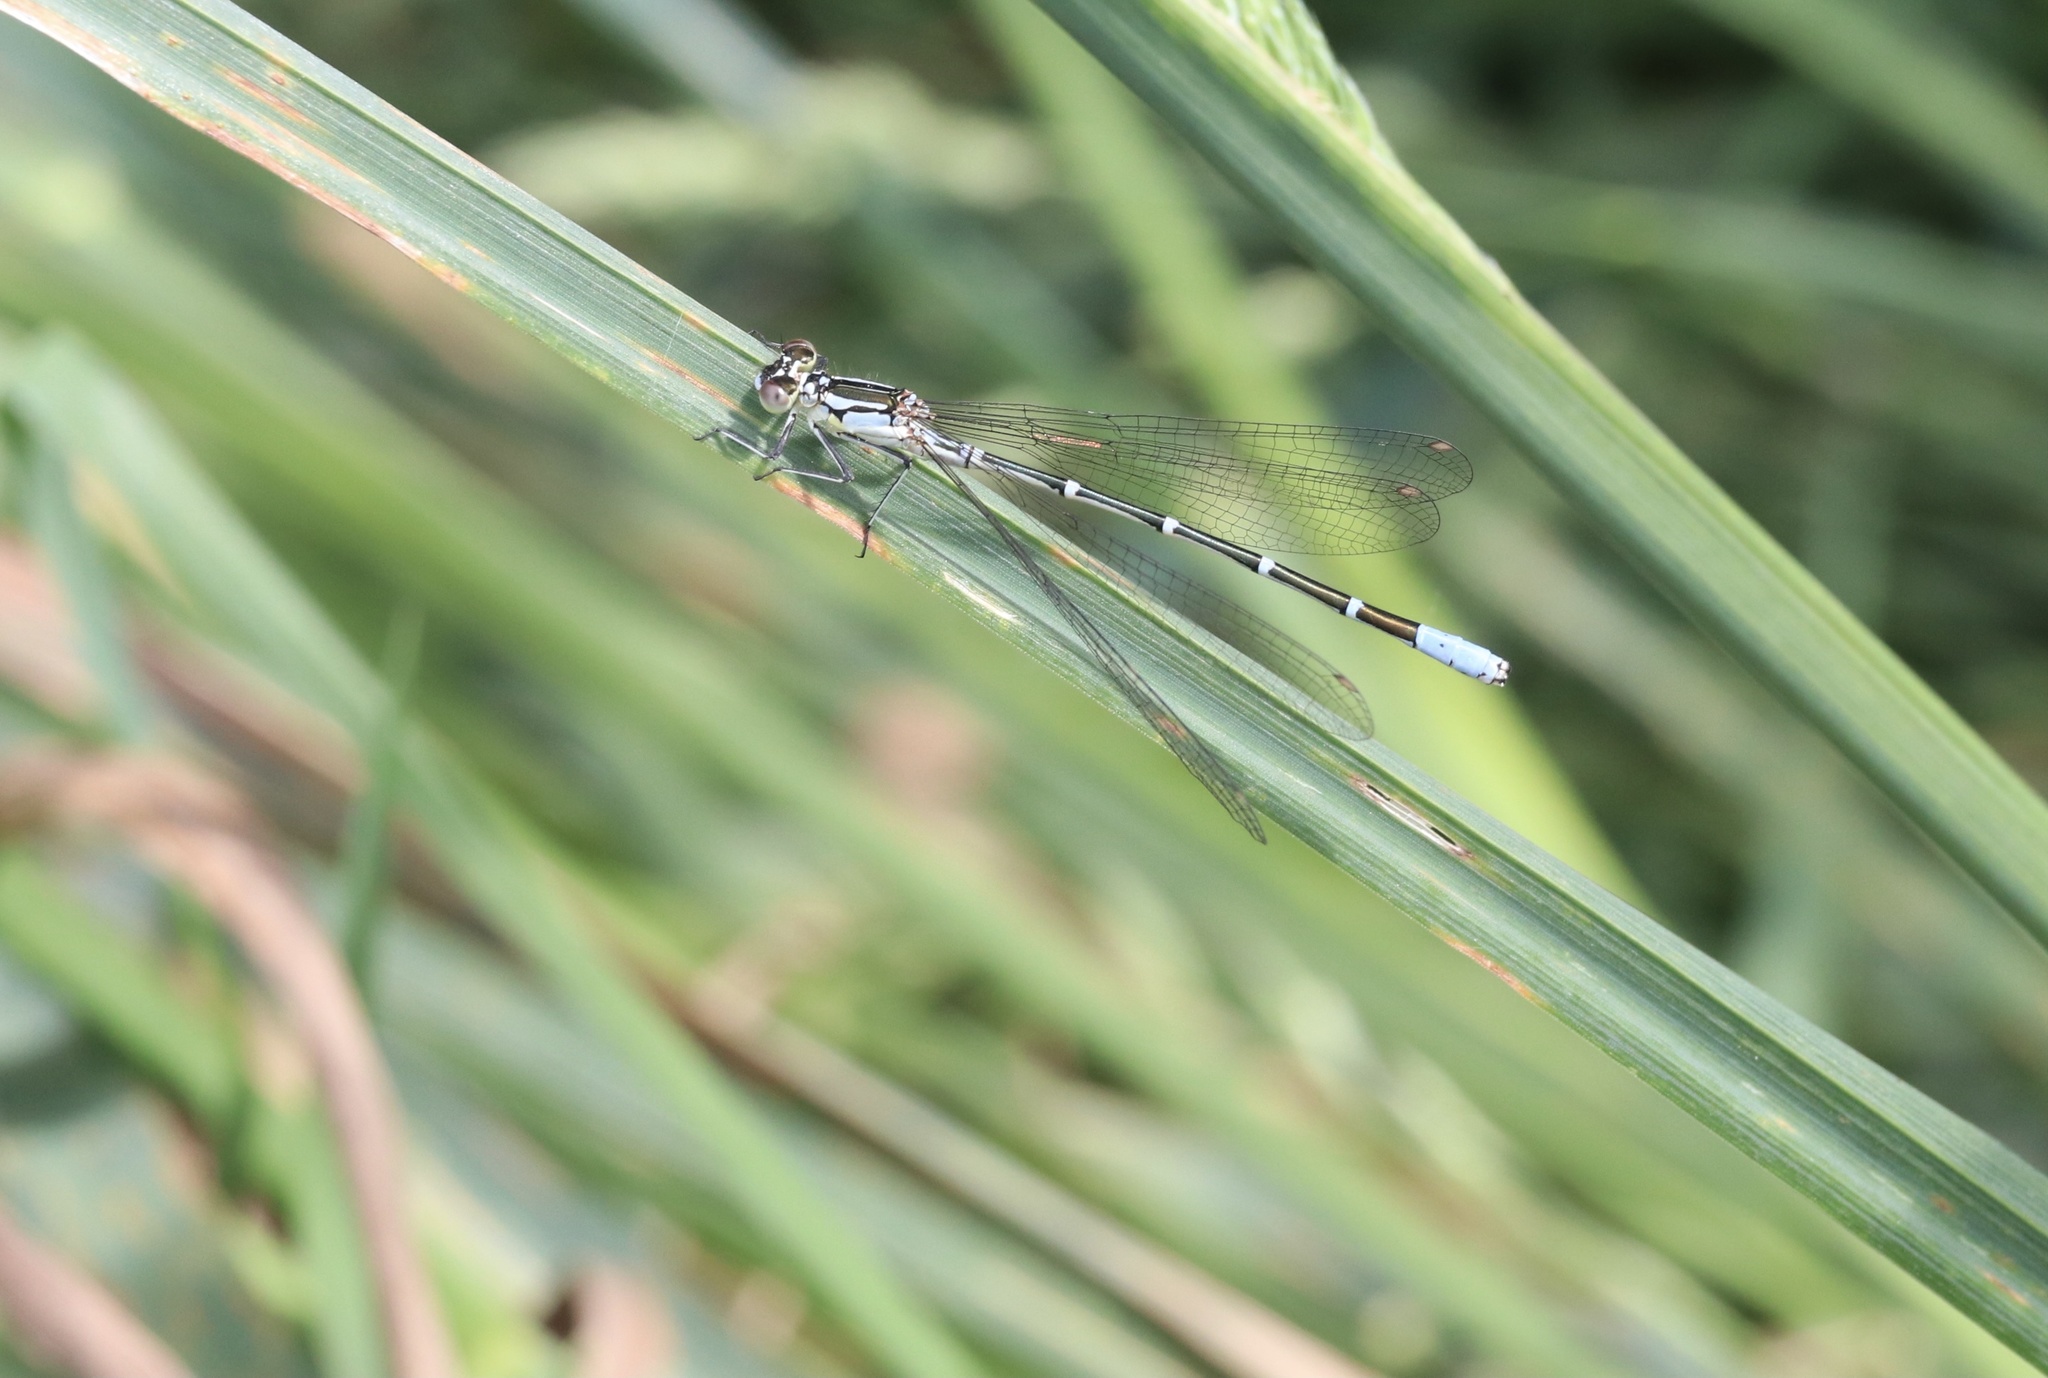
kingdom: Animalia
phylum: Arthropoda
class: Insecta
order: Odonata
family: Coenagrionidae
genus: Antiagrion
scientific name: Antiagrion gayi
